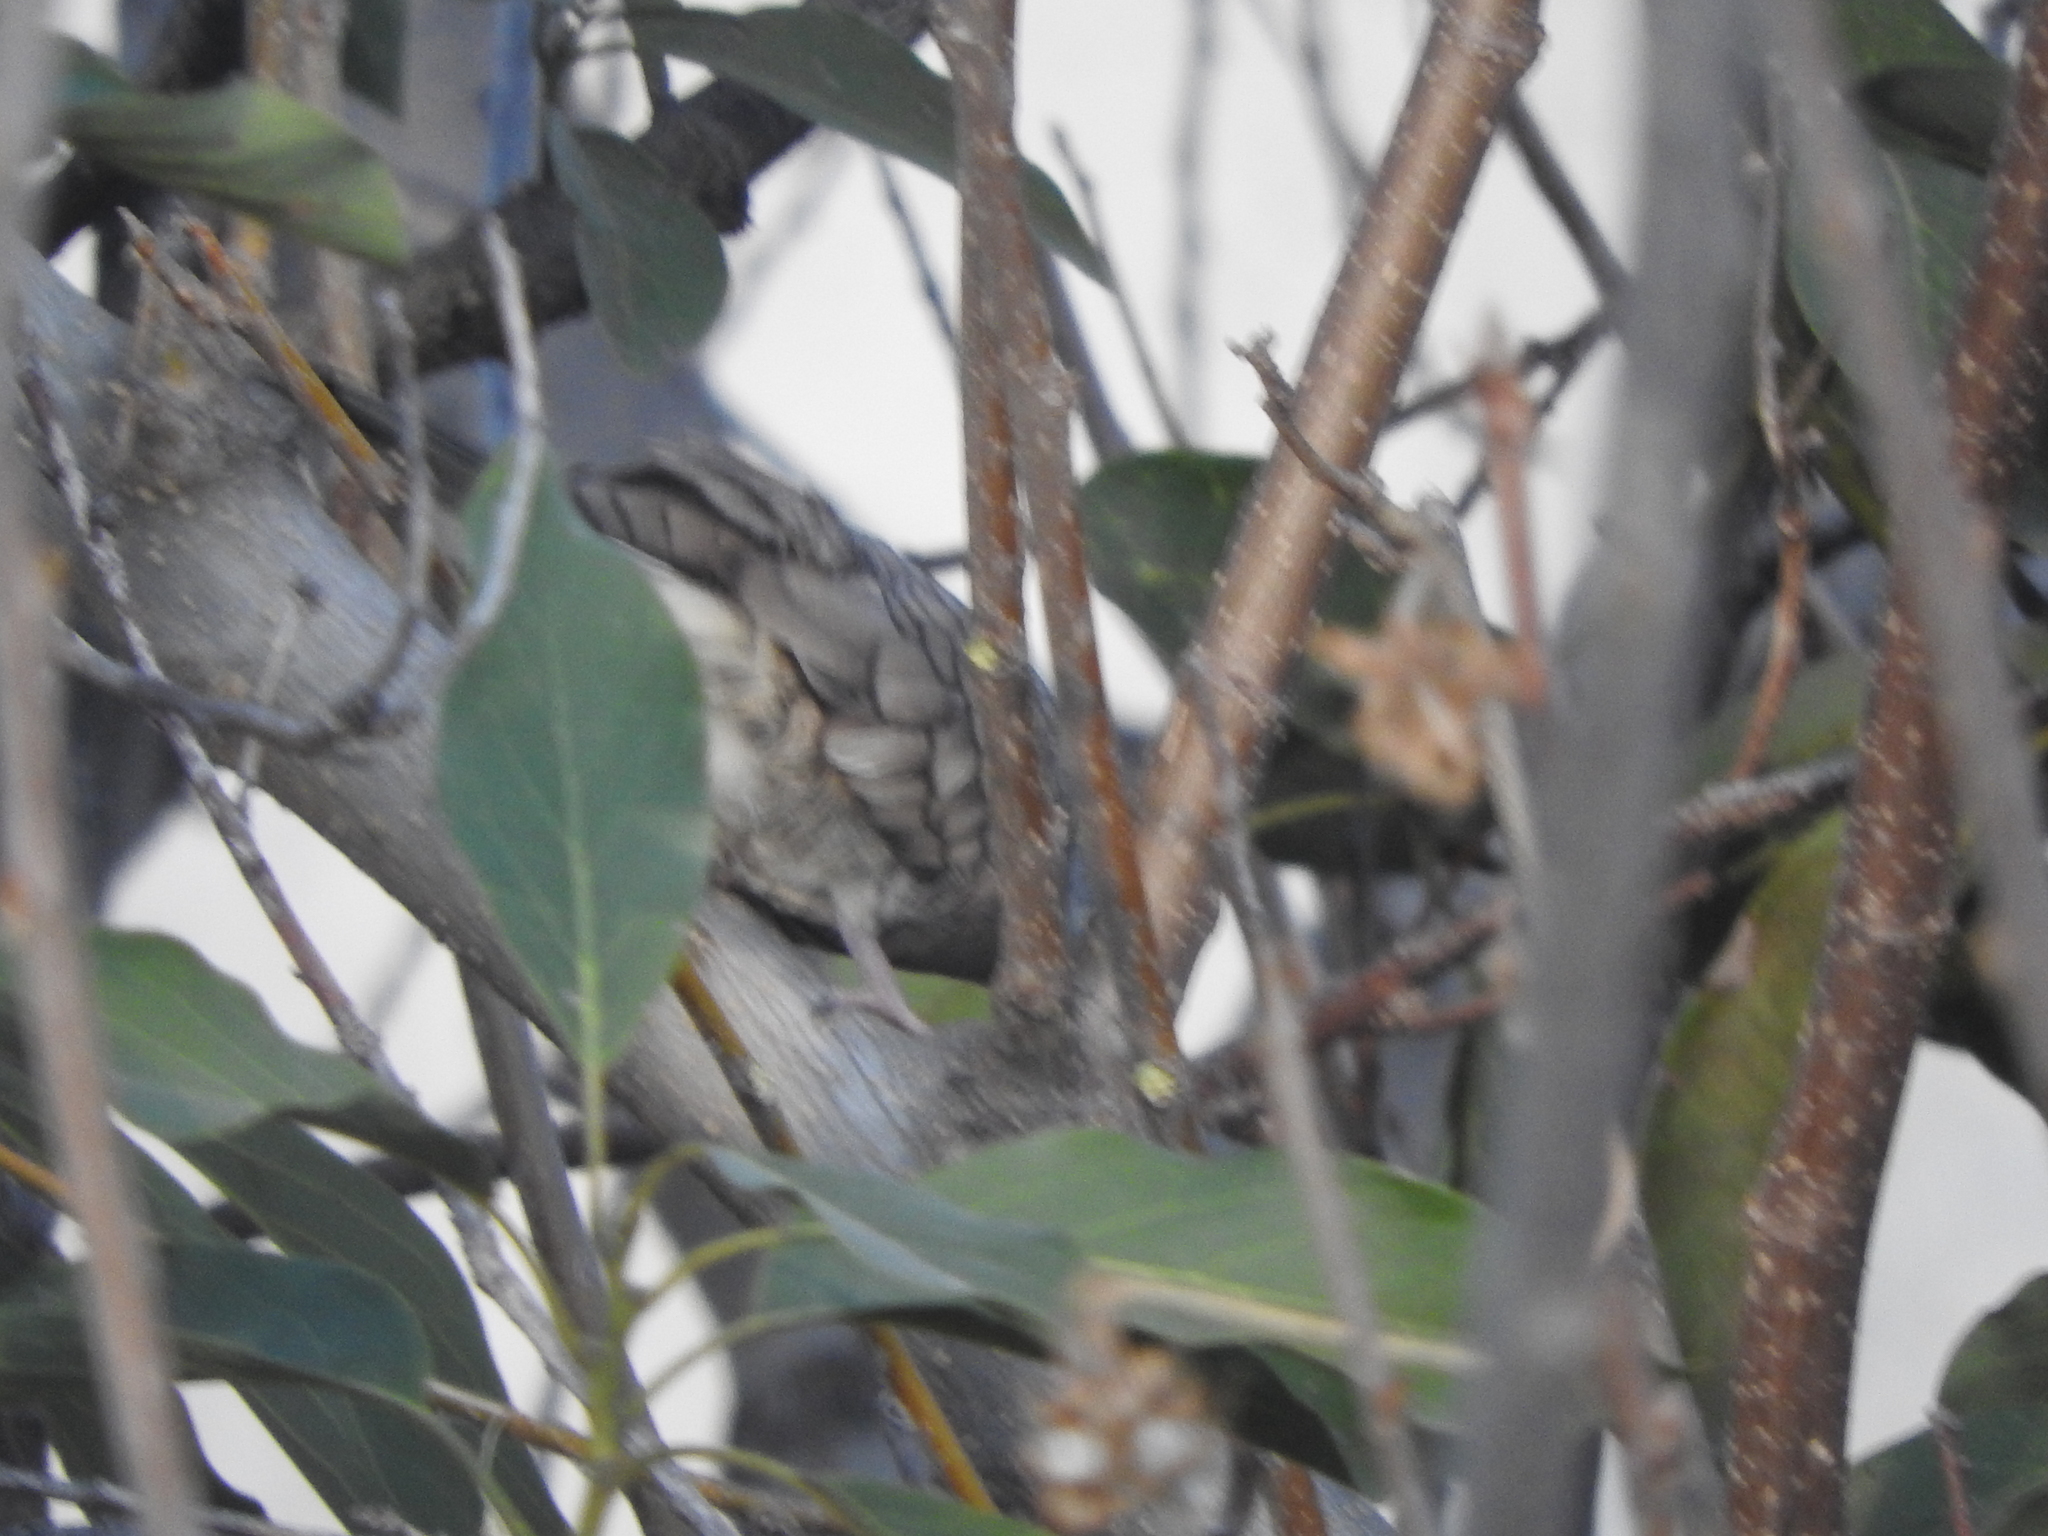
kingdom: Animalia
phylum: Chordata
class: Aves
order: Columbiformes
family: Columbidae
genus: Columbina
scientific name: Columbina inca
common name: Inca dove
